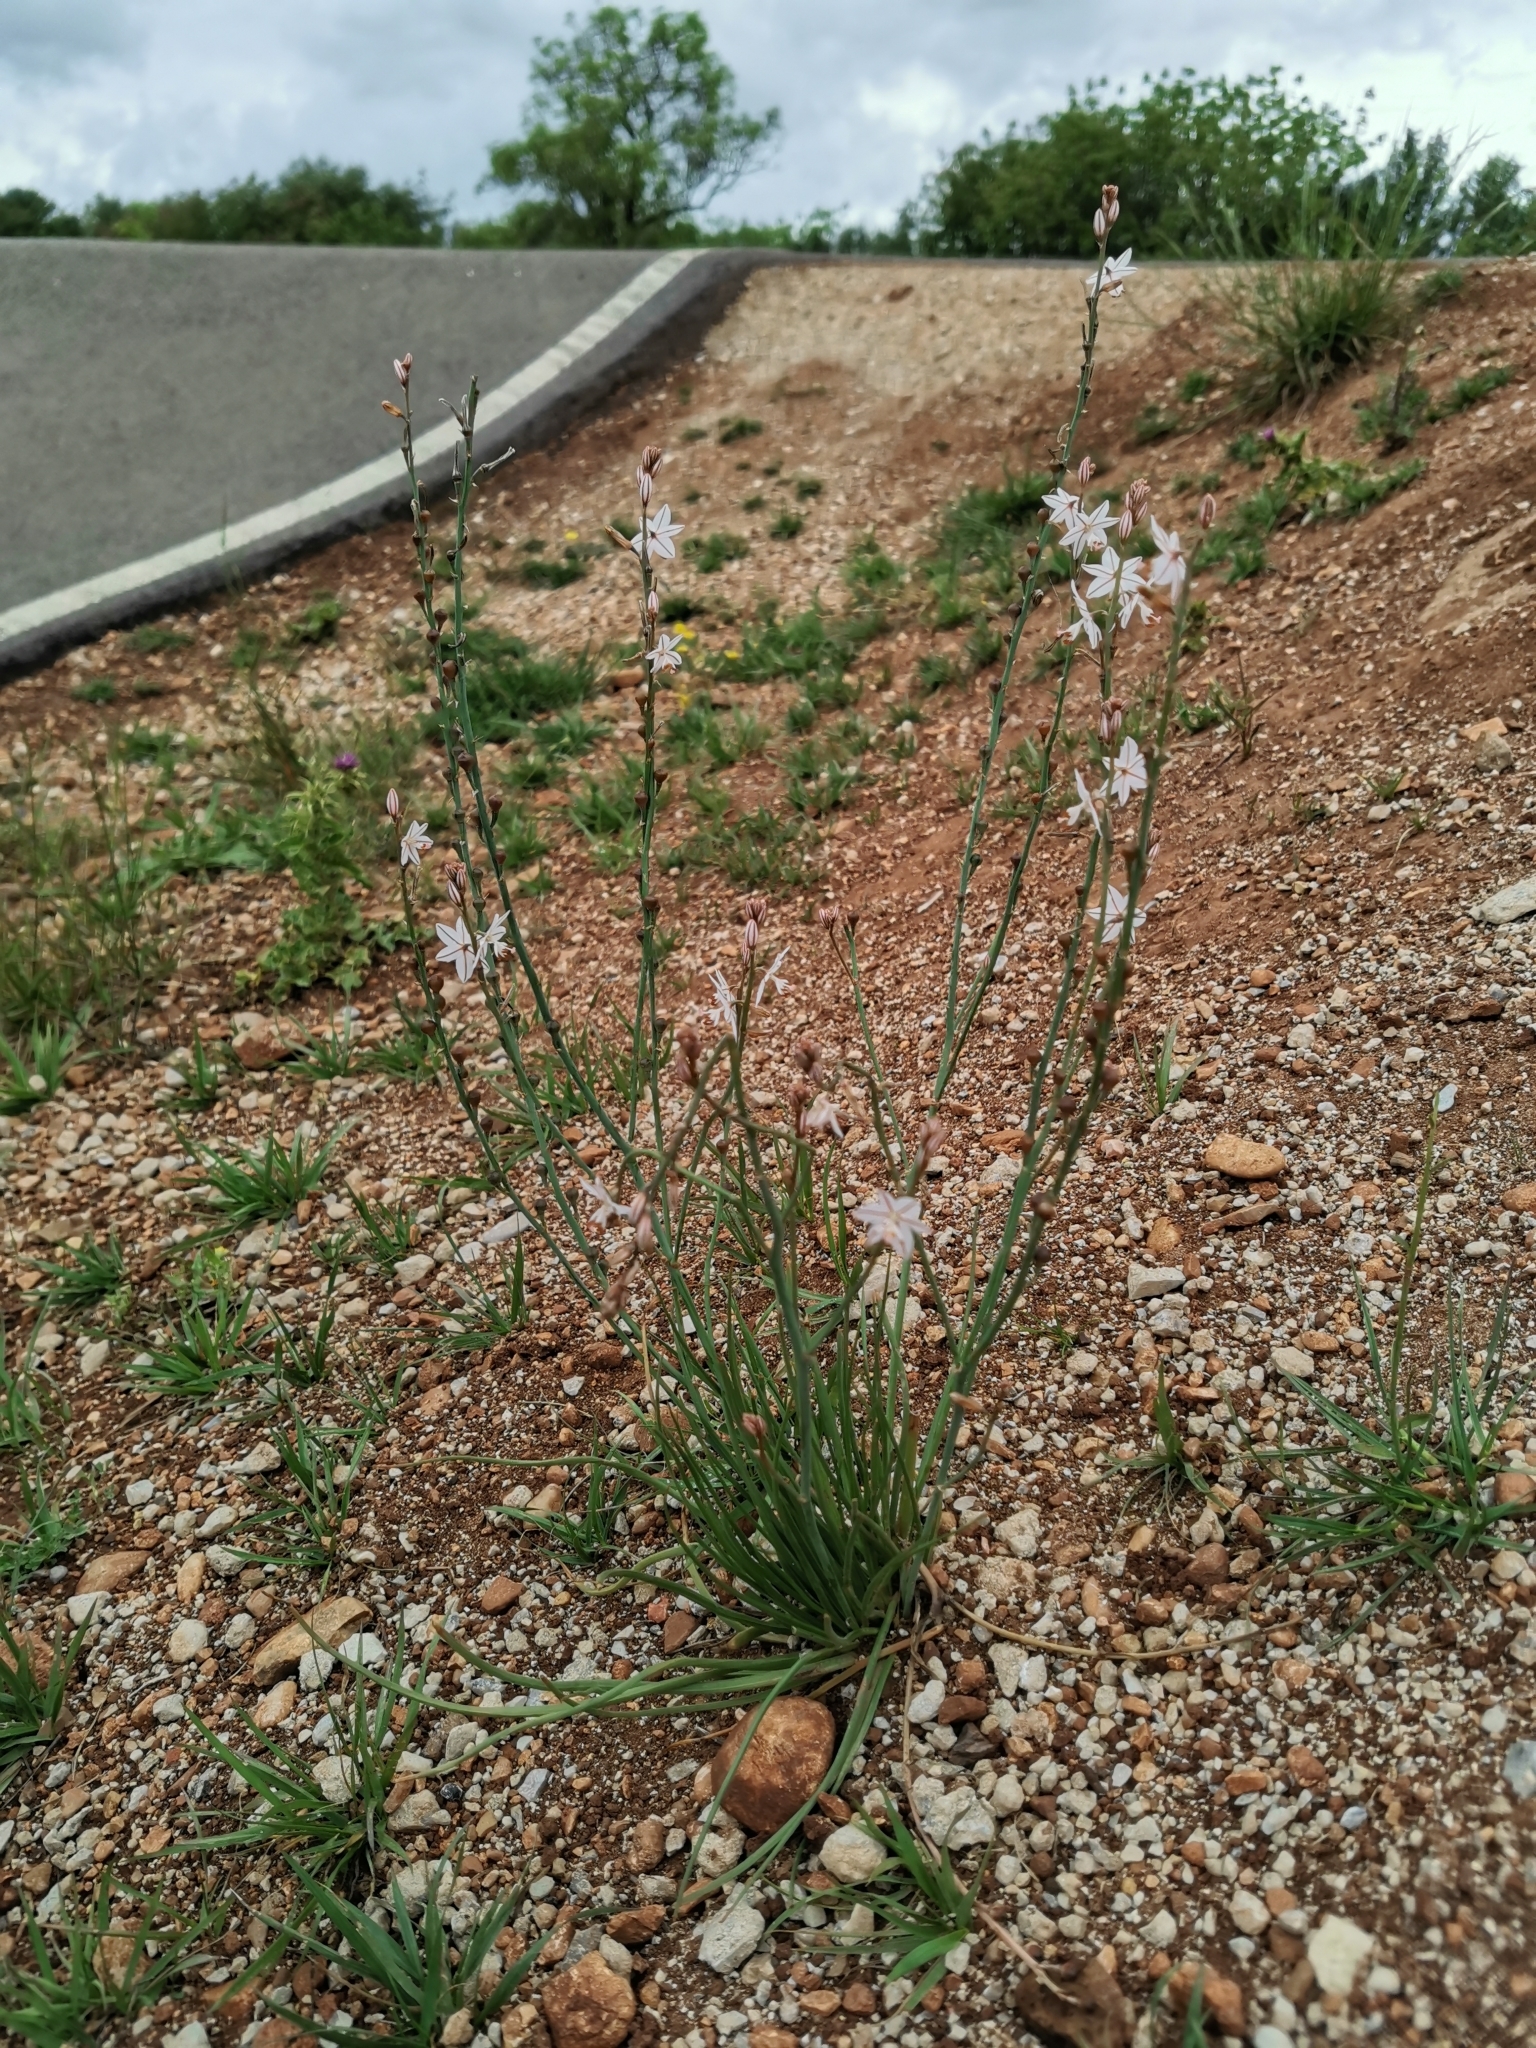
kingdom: Plantae
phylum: Tracheophyta
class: Liliopsida
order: Asparagales
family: Asphodelaceae
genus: Asphodelus
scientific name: Asphodelus fistulosus
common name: Onionweed
